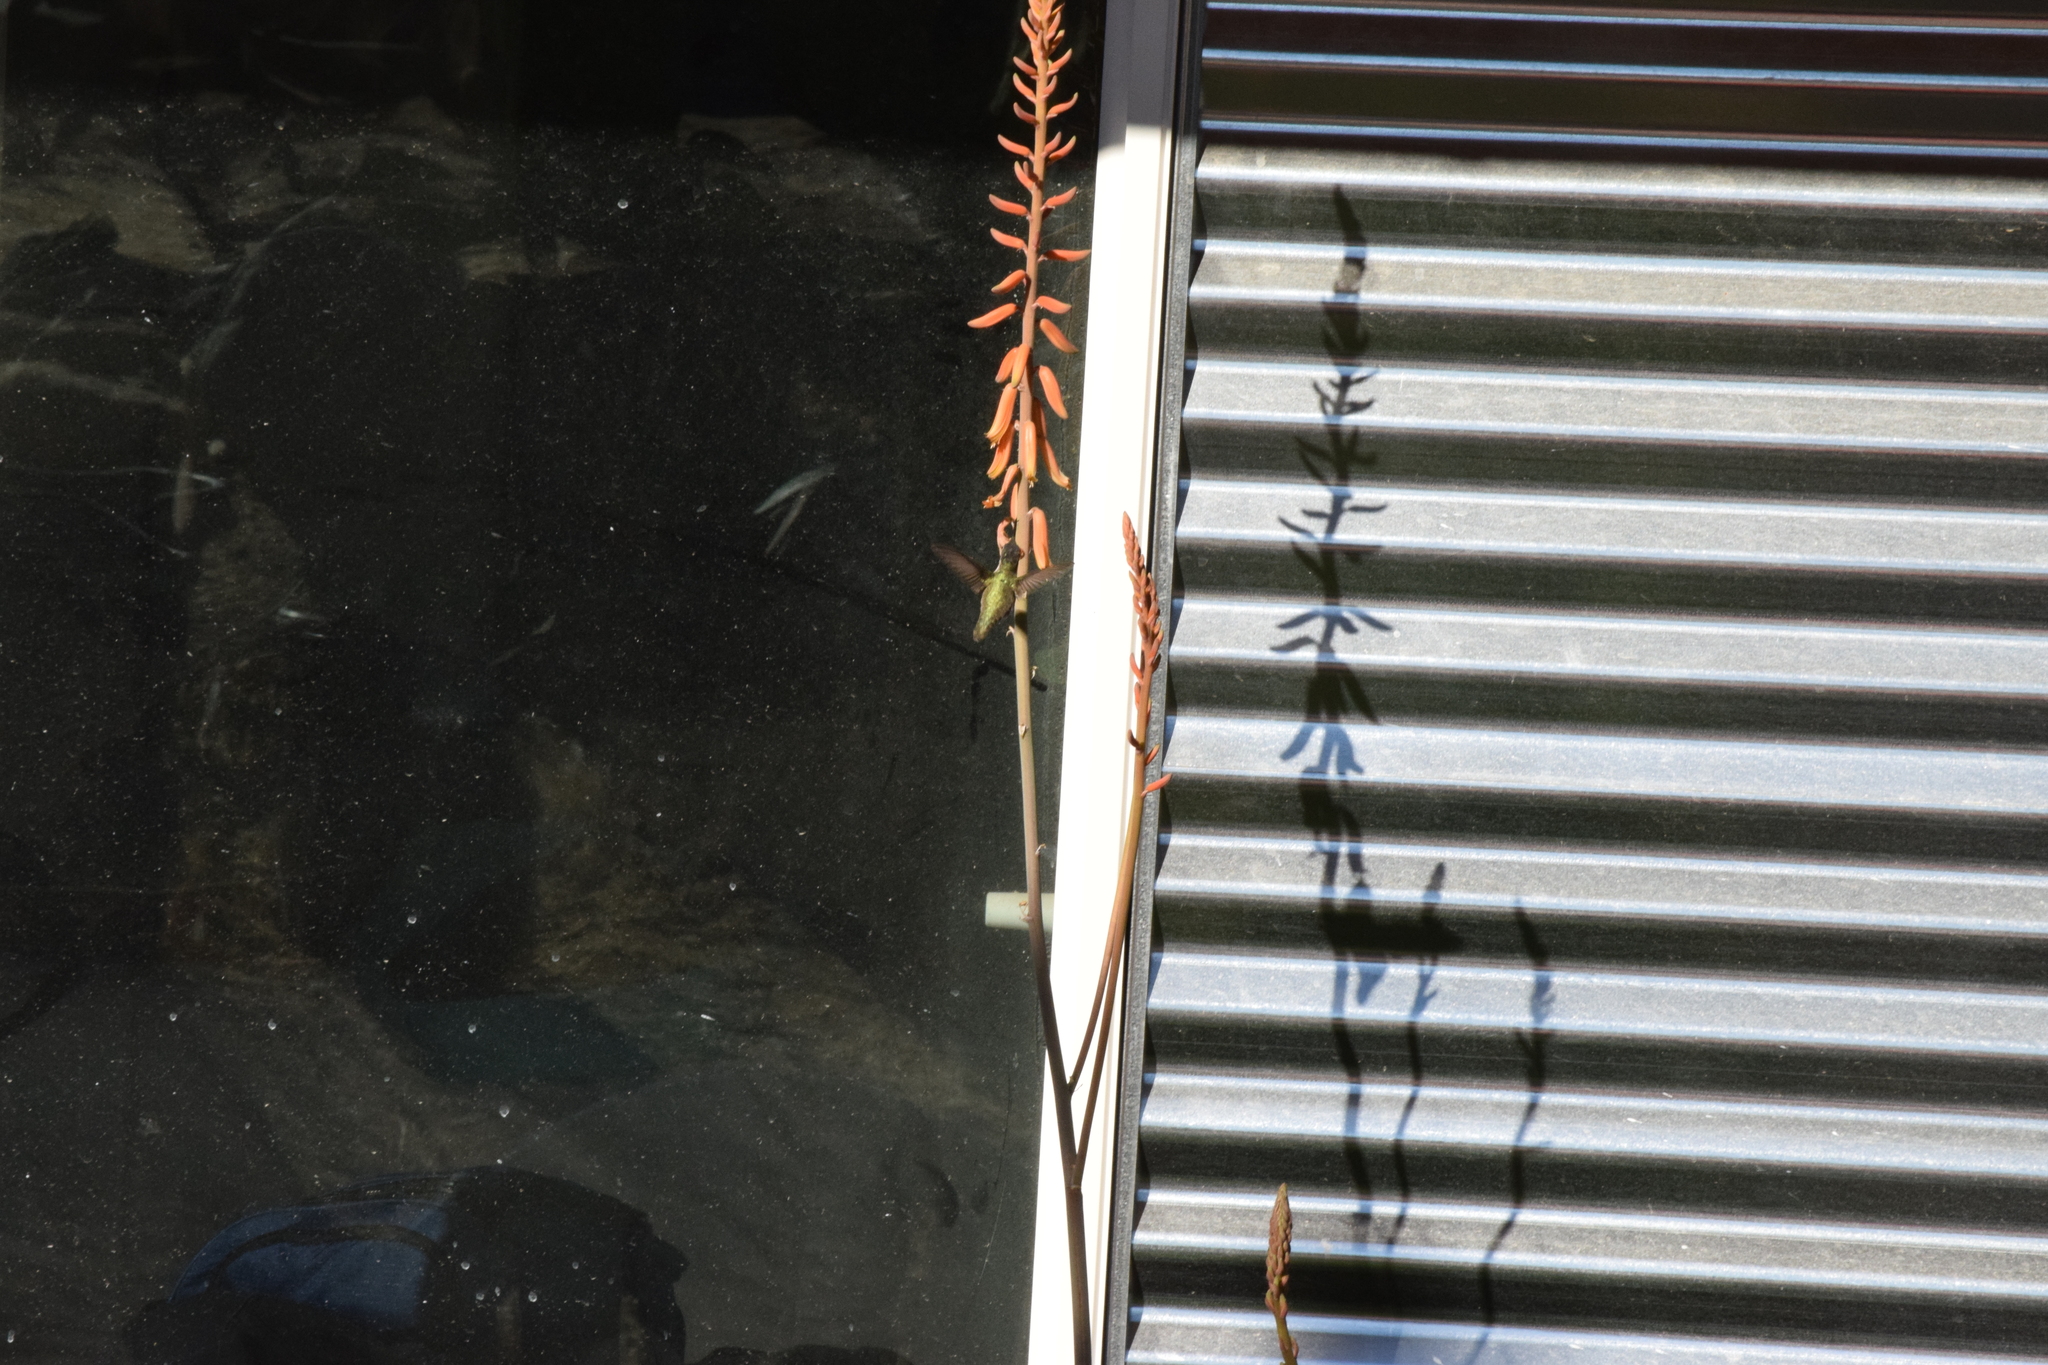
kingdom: Animalia
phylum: Chordata
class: Aves
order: Apodiformes
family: Trochilidae
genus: Calypte
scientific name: Calypte costae
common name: Costa's hummingbird
